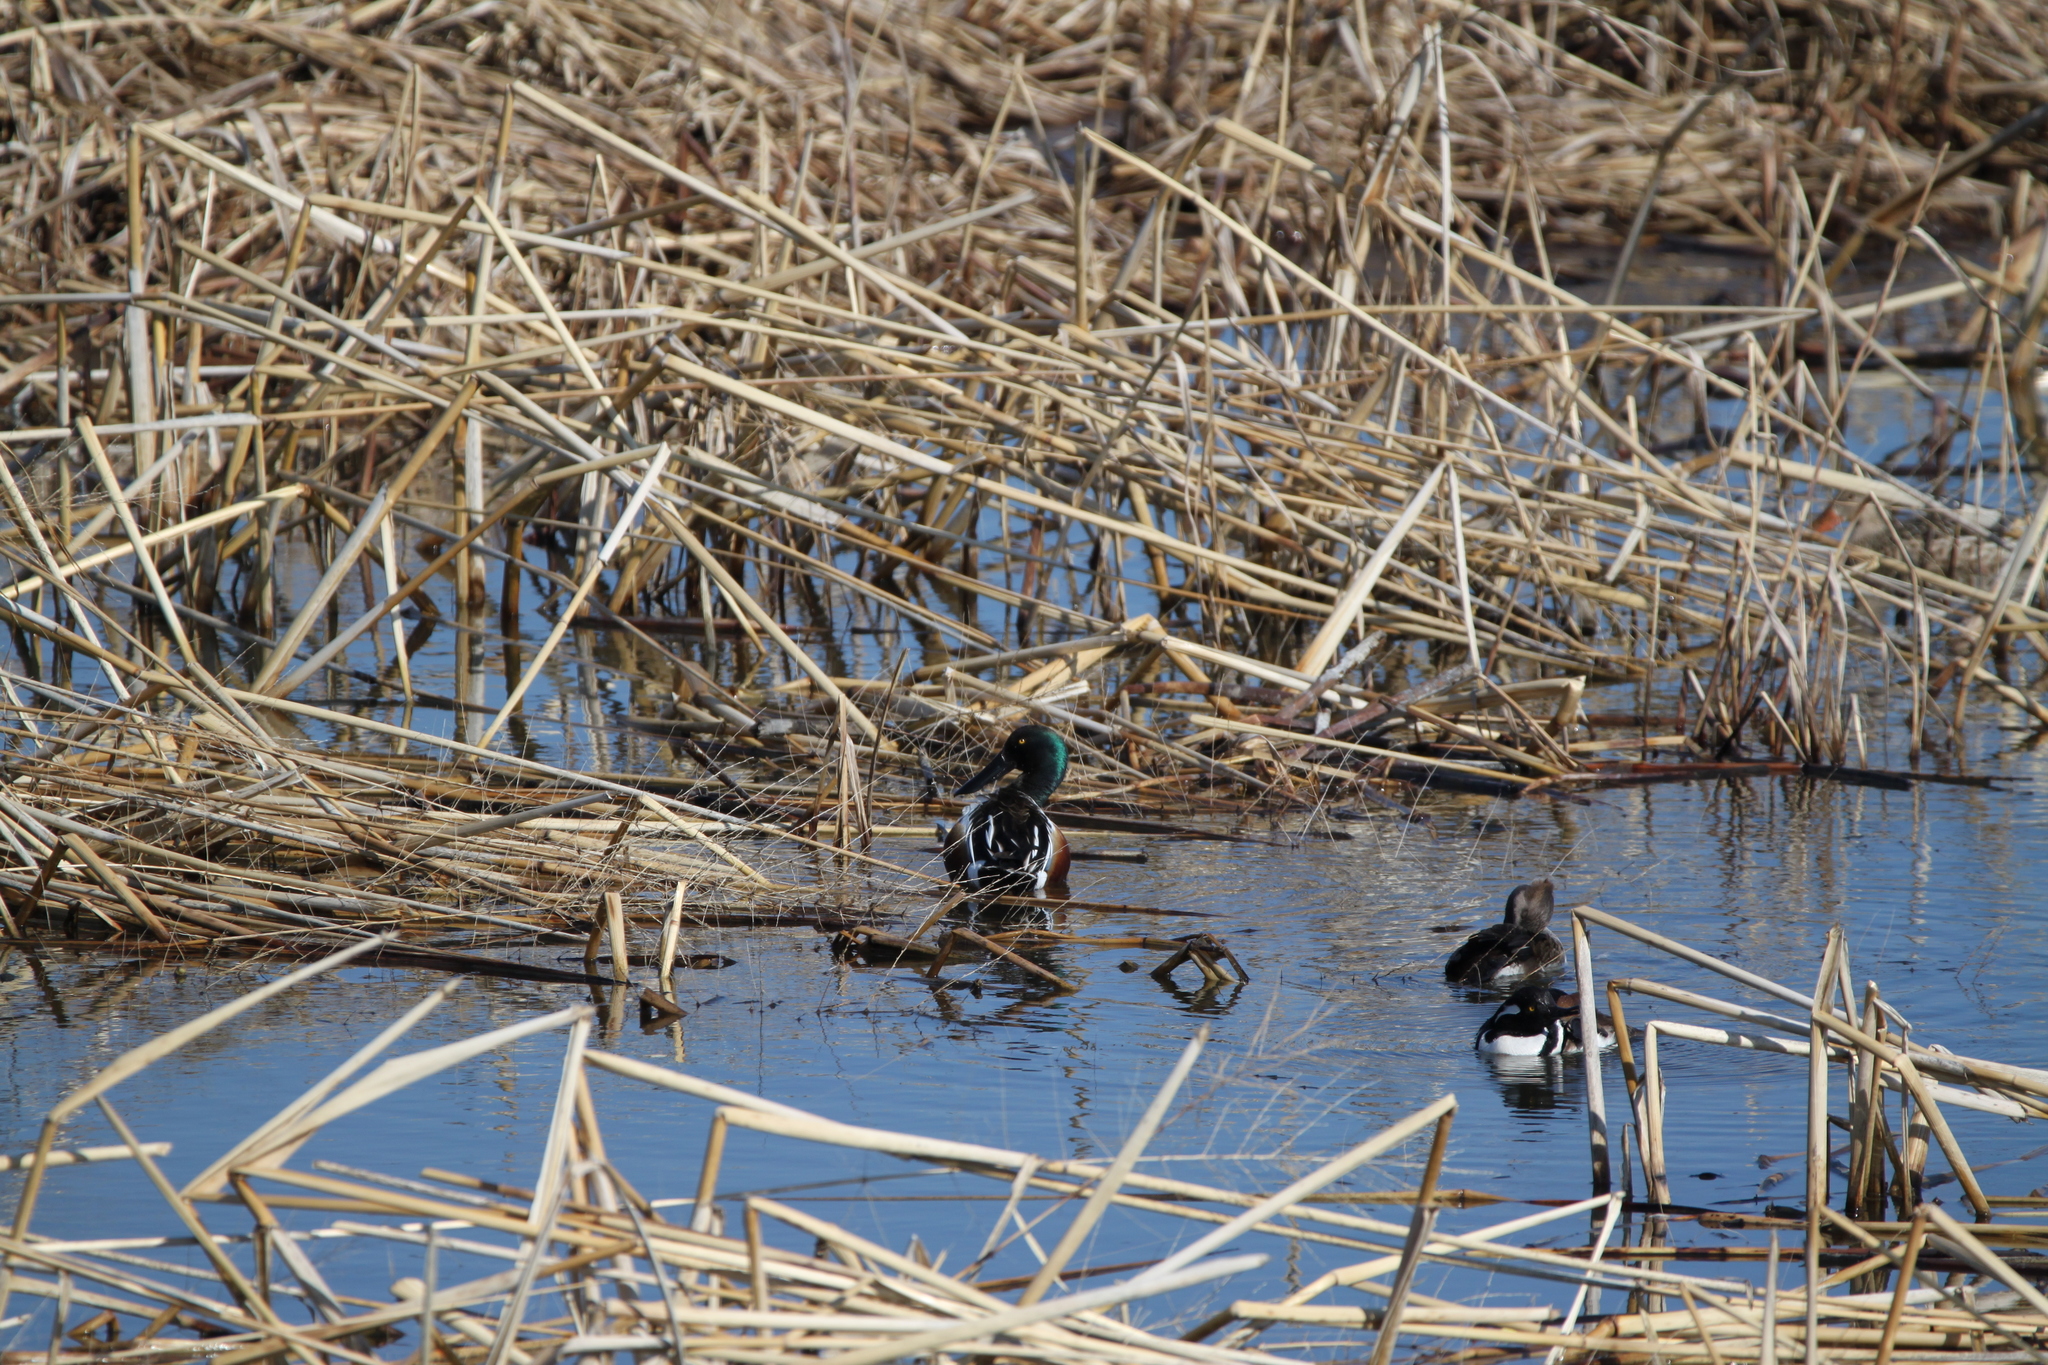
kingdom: Animalia
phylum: Chordata
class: Aves
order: Anseriformes
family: Anatidae
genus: Spatula
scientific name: Spatula clypeata
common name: Northern shoveler
